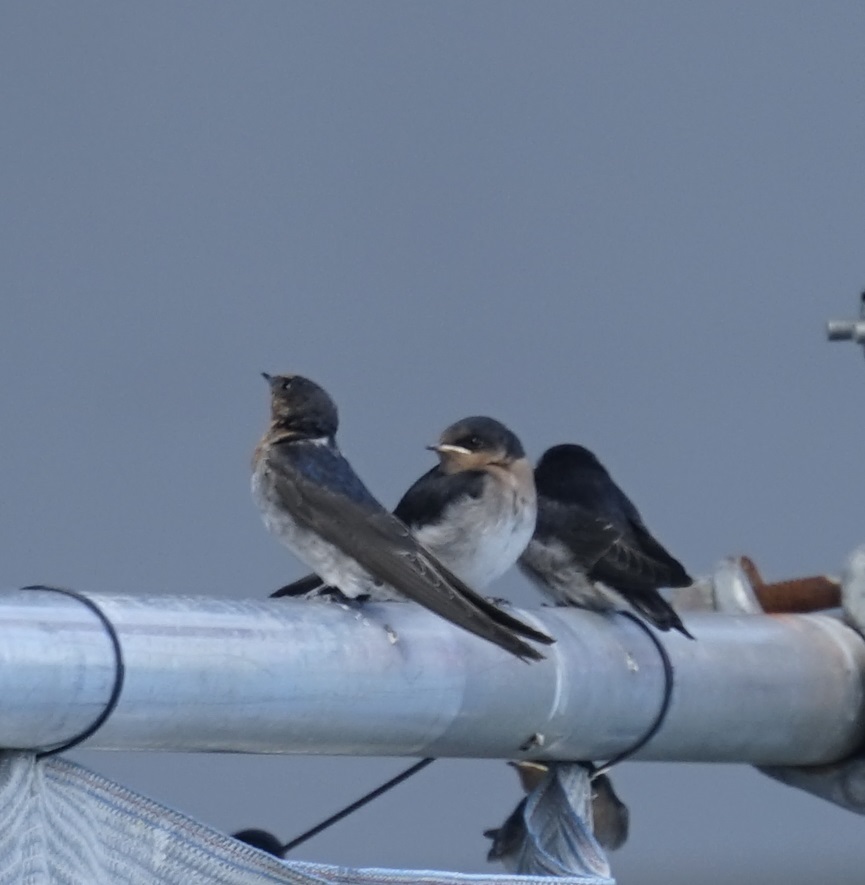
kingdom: Animalia
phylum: Chordata
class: Aves
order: Passeriformes
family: Hirundinidae
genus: Hirundo
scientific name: Hirundo neoxena
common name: Welcome swallow
